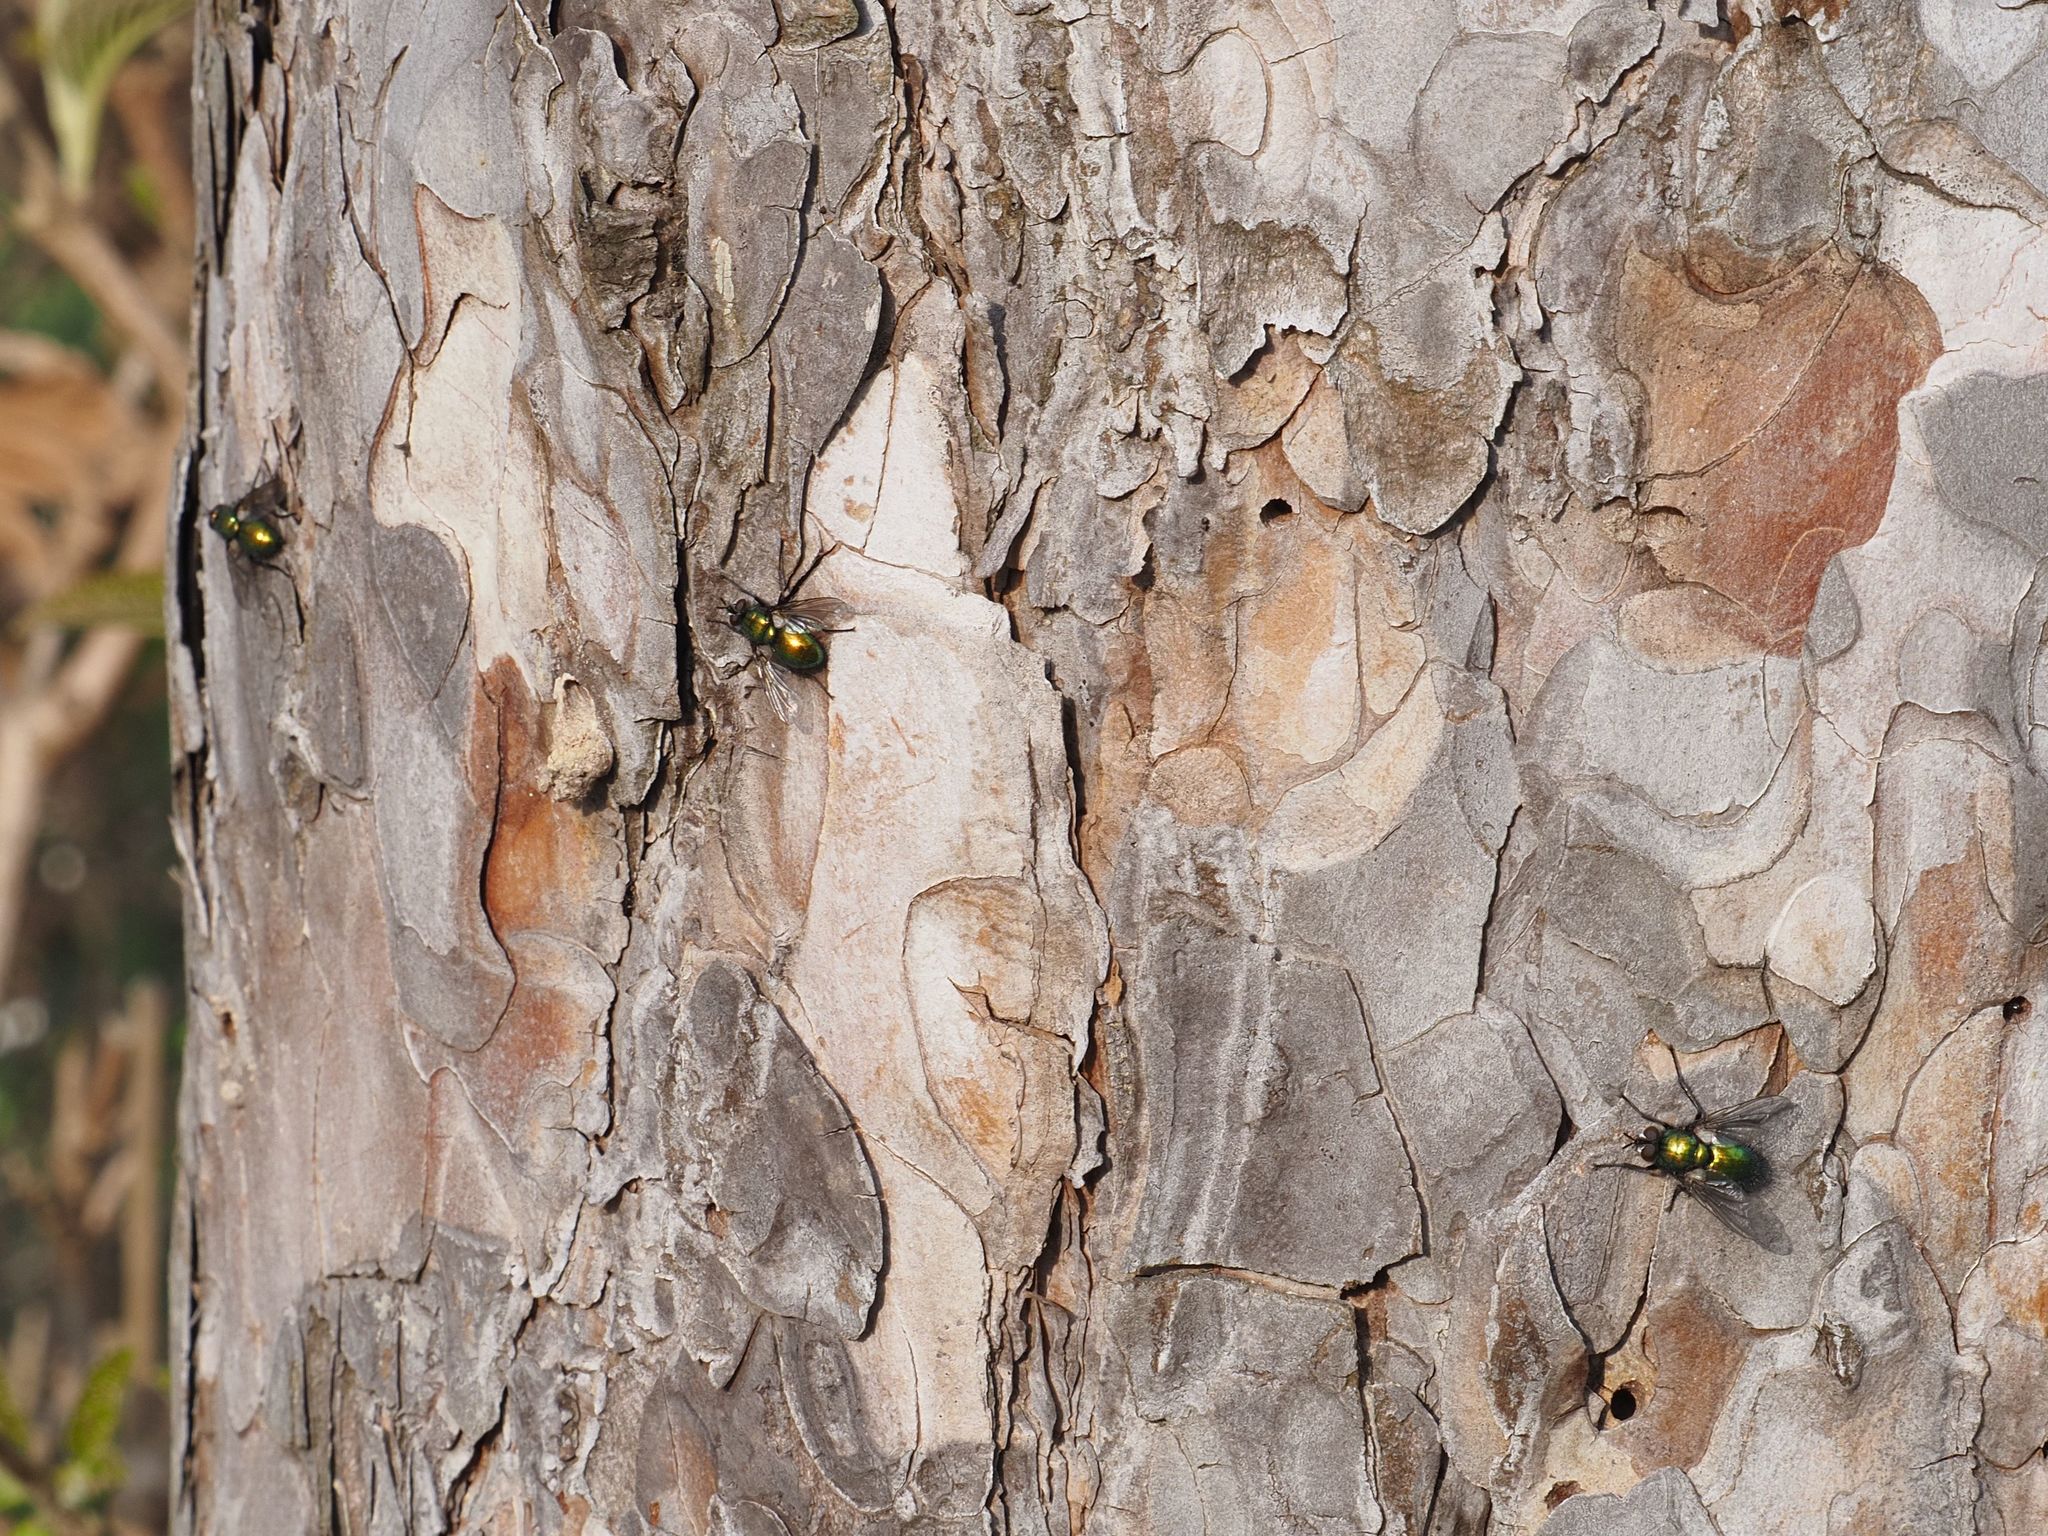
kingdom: Animalia
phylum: Arthropoda
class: Insecta
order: Diptera
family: Tachinidae
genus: Gymnocheta
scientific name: Gymnocheta viridis
